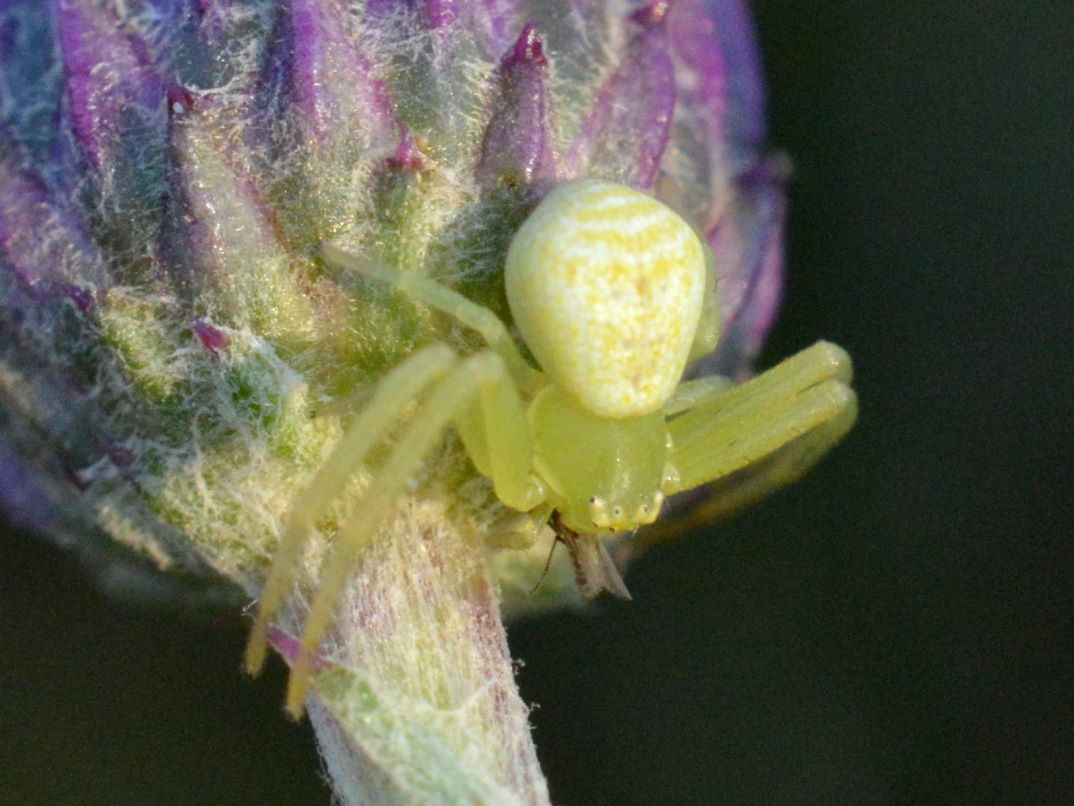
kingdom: Animalia
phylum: Arthropoda
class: Arachnida
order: Araneae
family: Thomisidae
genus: Ebrechtella
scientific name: Ebrechtella tricuspidata
